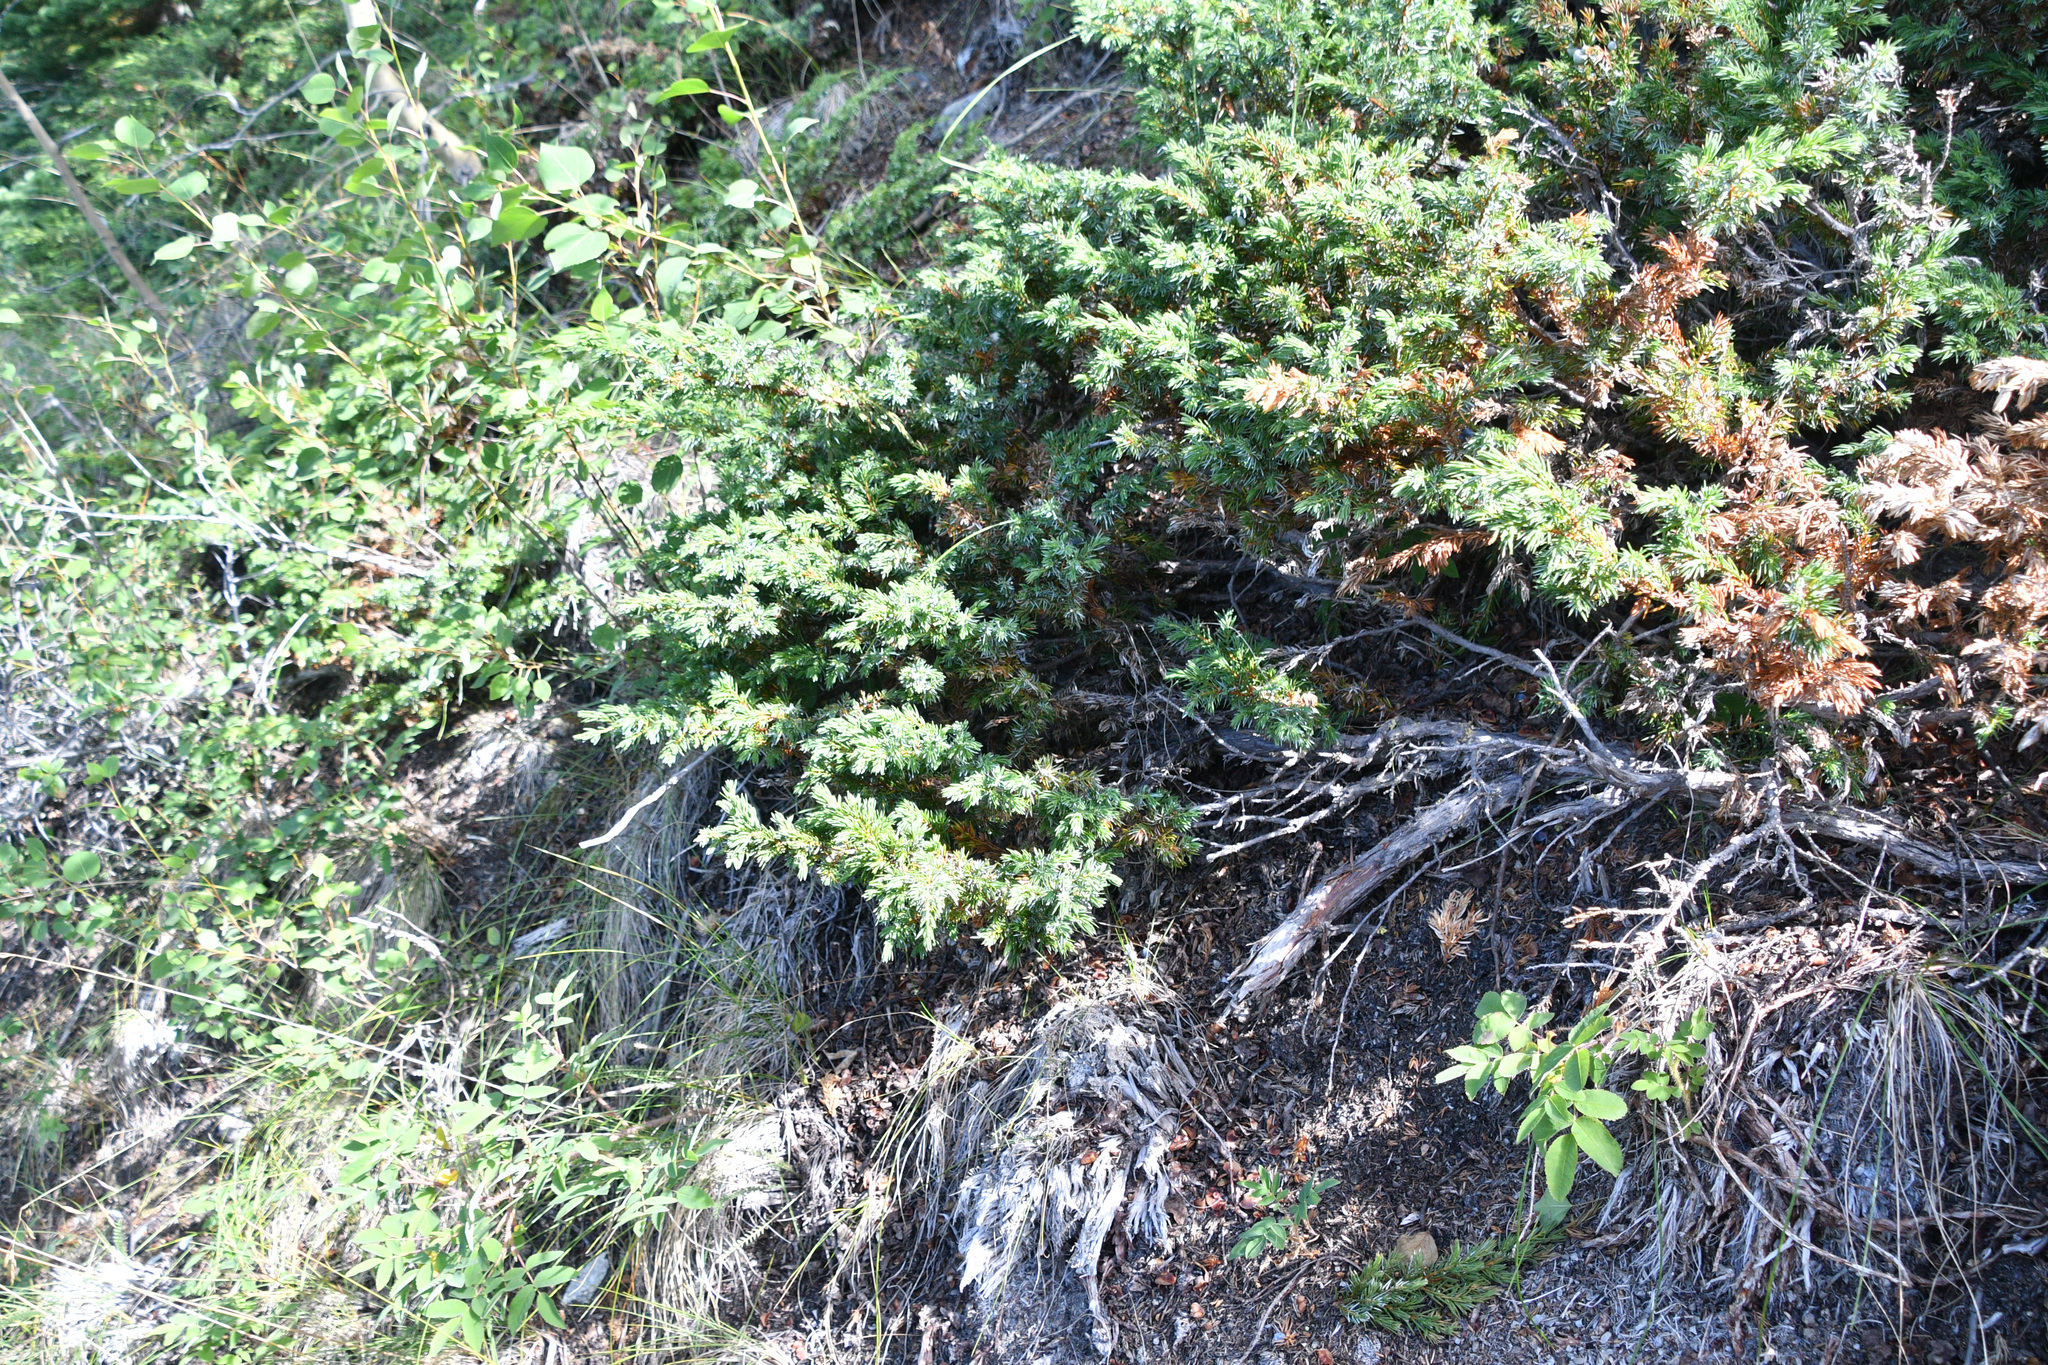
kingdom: Plantae
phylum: Tracheophyta
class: Pinopsida
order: Pinales
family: Cupressaceae
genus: Juniperus
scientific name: Juniperus communis
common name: Common juniper
